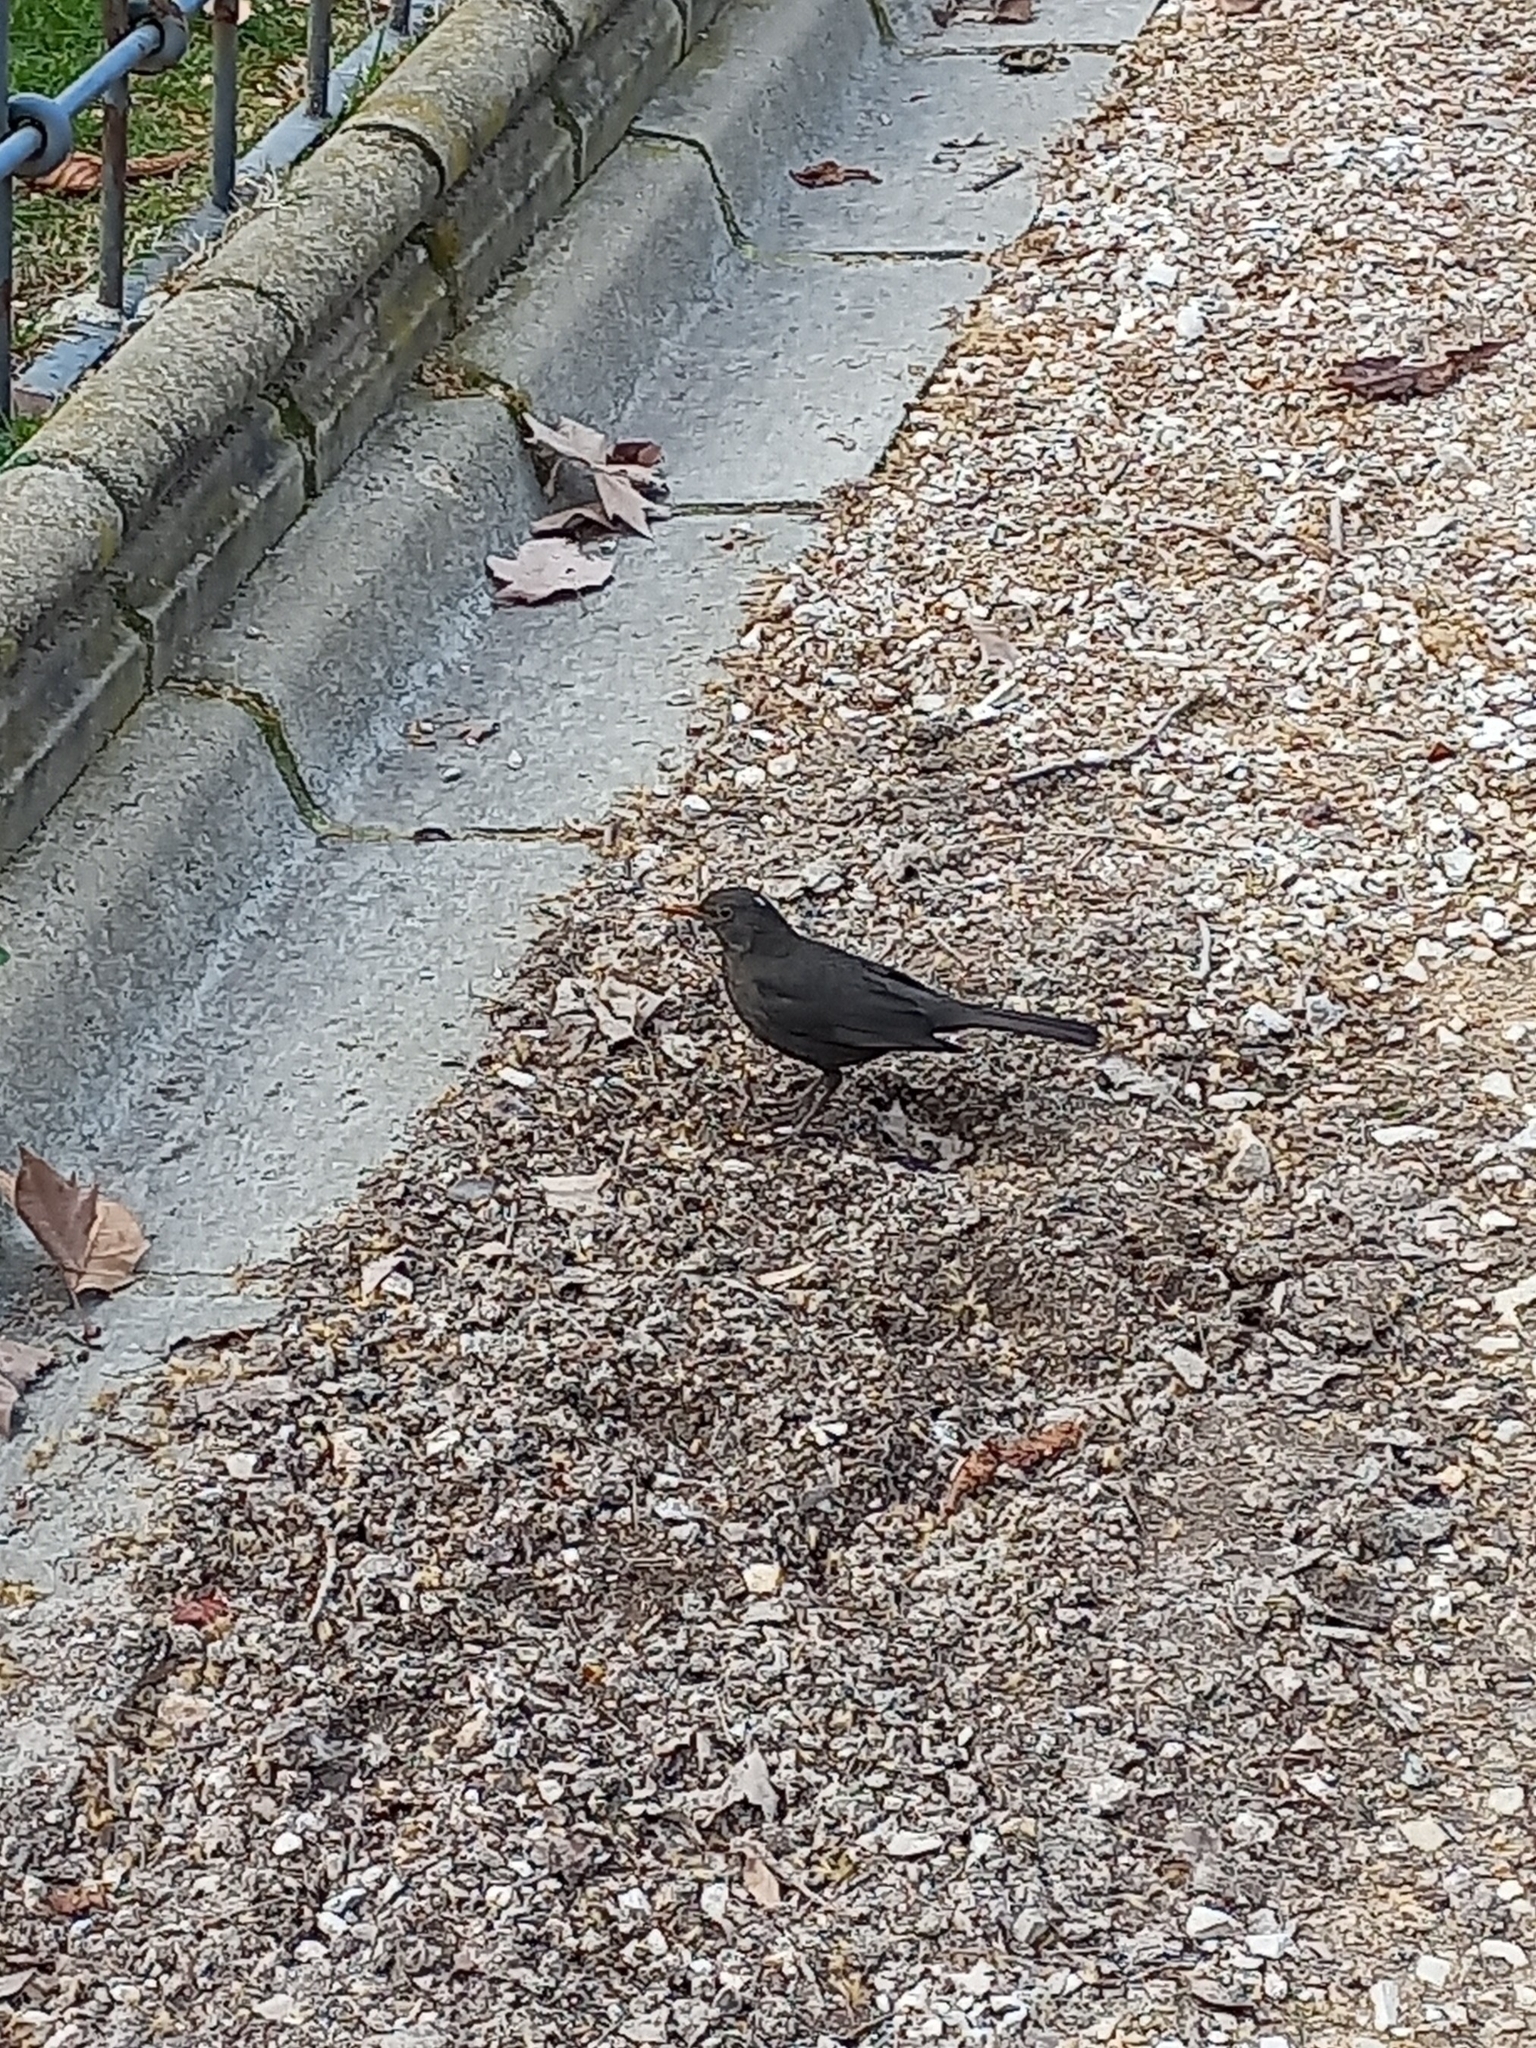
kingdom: Animalia
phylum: Chordata
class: Aves
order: Passeriformes
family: Turdidae
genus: Turdus
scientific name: Turdus merula
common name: Common blackbird
